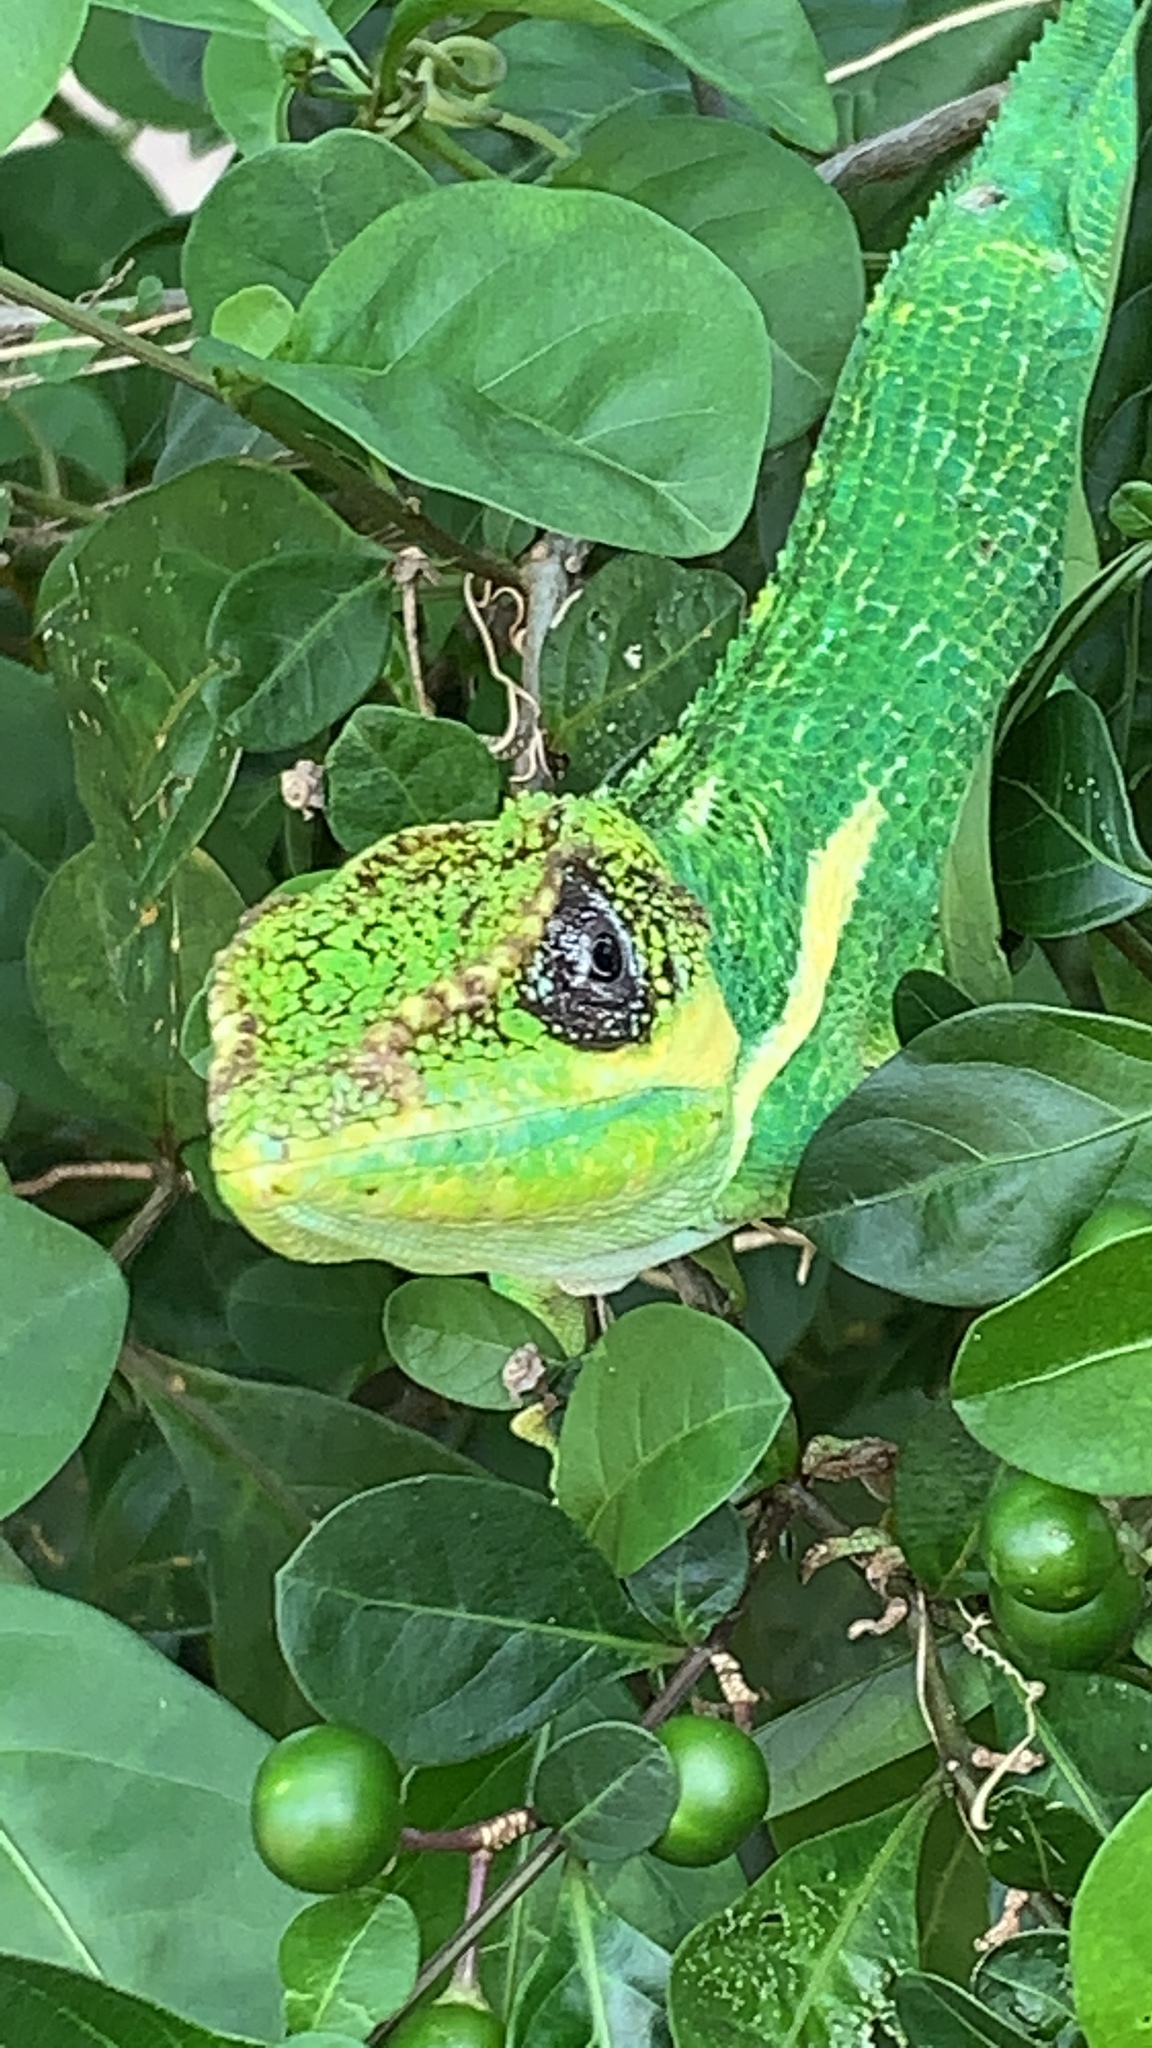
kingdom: Animalia
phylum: Chordata
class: Squamata
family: Dactyloidae
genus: Anolis
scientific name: Anolis equestris
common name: Knight anole
